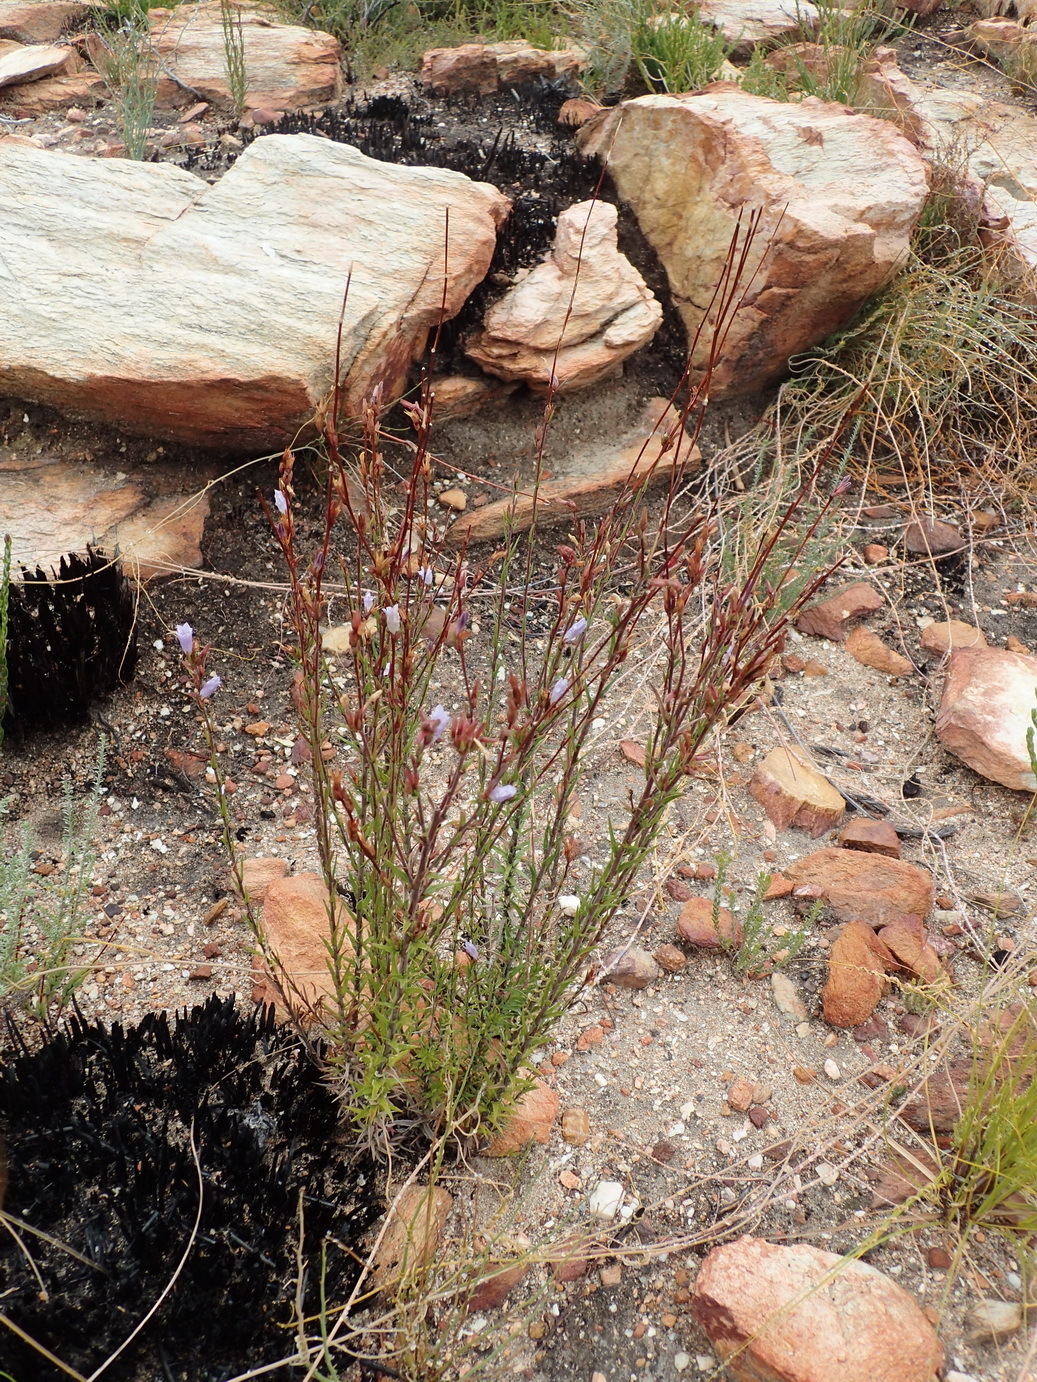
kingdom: Plantae
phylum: Tracheophyta
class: Magnoliopsida
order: Asterales
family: Campanulaceae
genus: Prismatocarpus
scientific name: Prismatocarpus candolleanus
